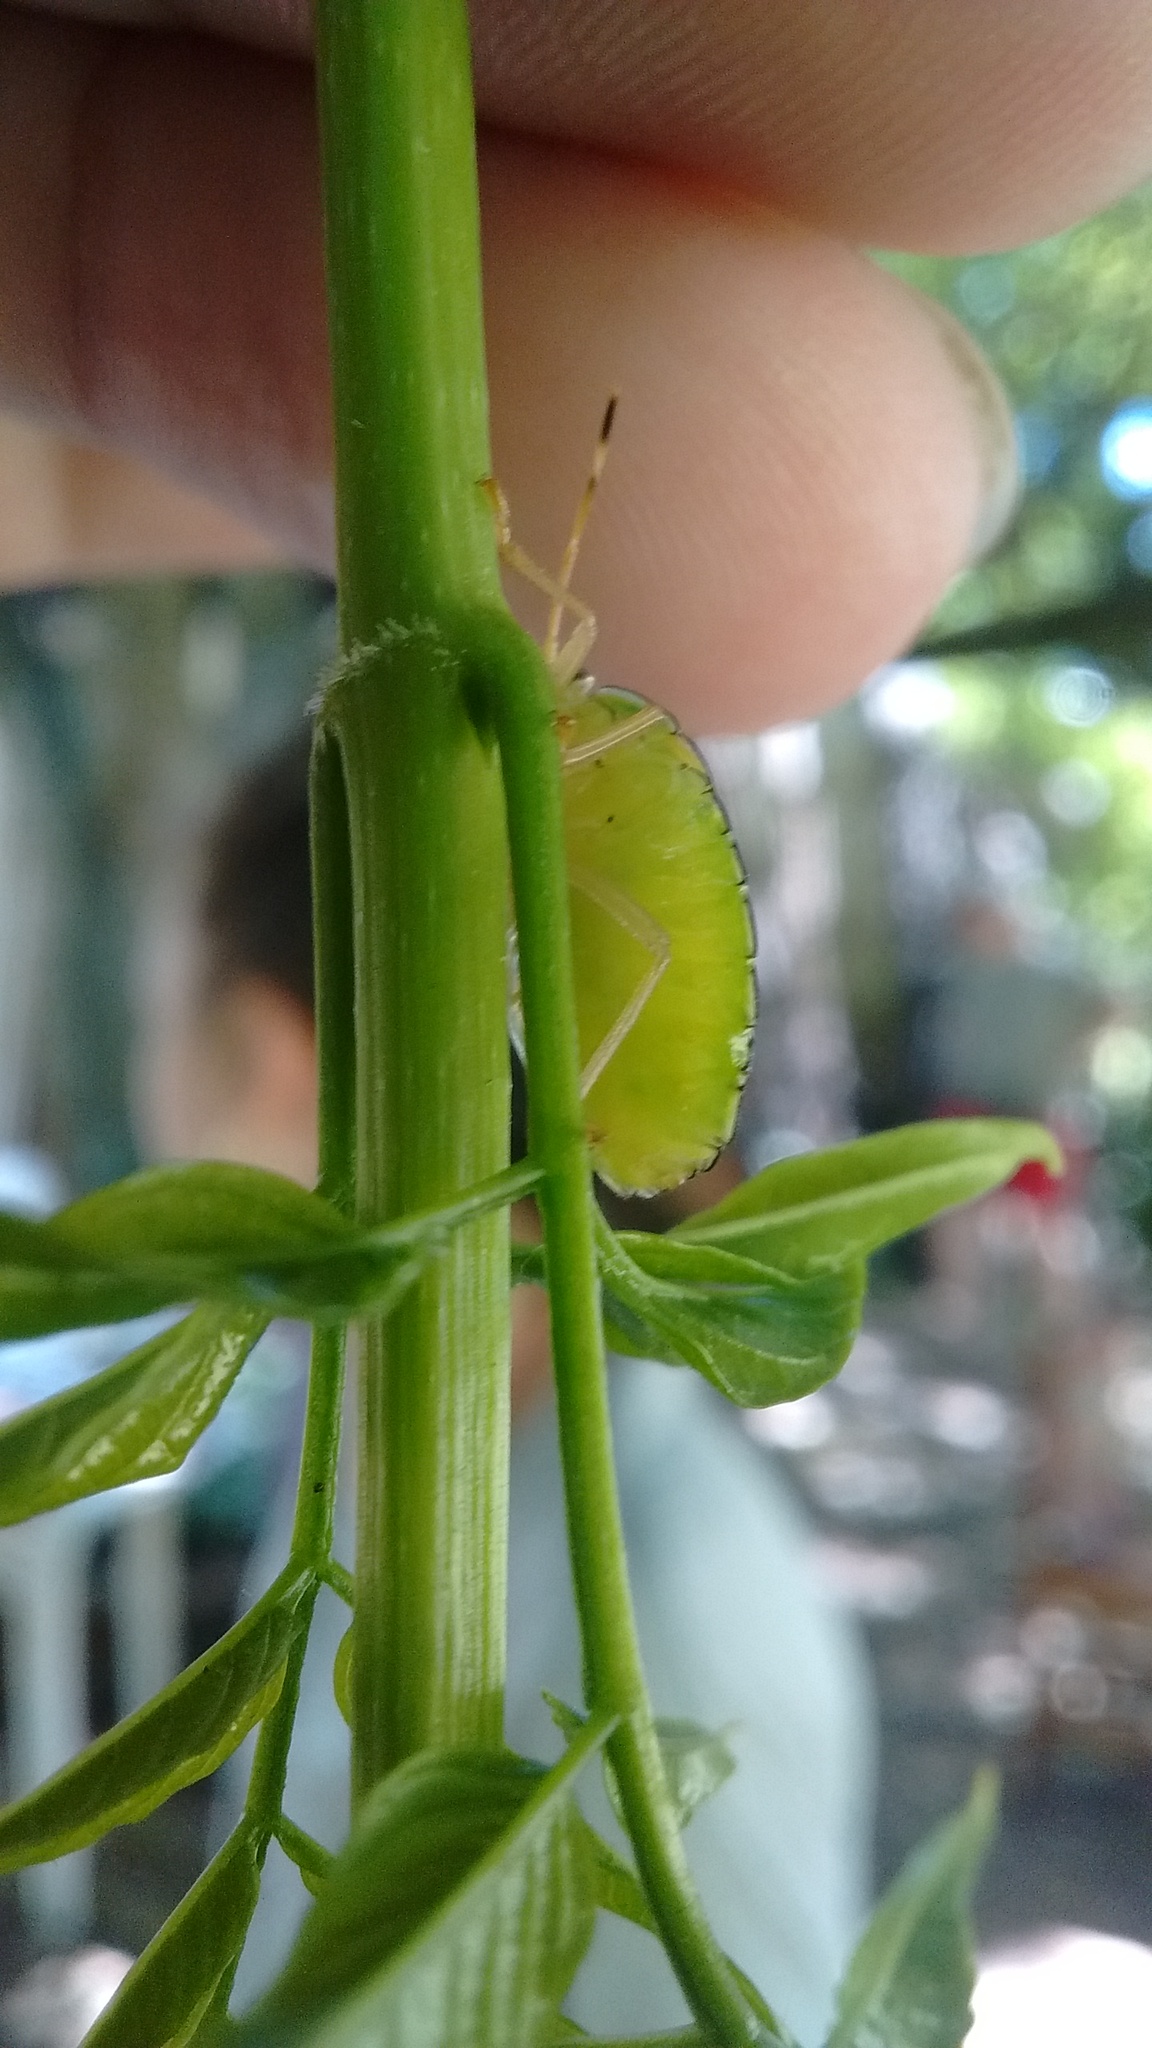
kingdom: Animalia
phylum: Arthropoda
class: Insecta
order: Hemiptera
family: Pentatomidae
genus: Edessa
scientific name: Edessa meditabunda
